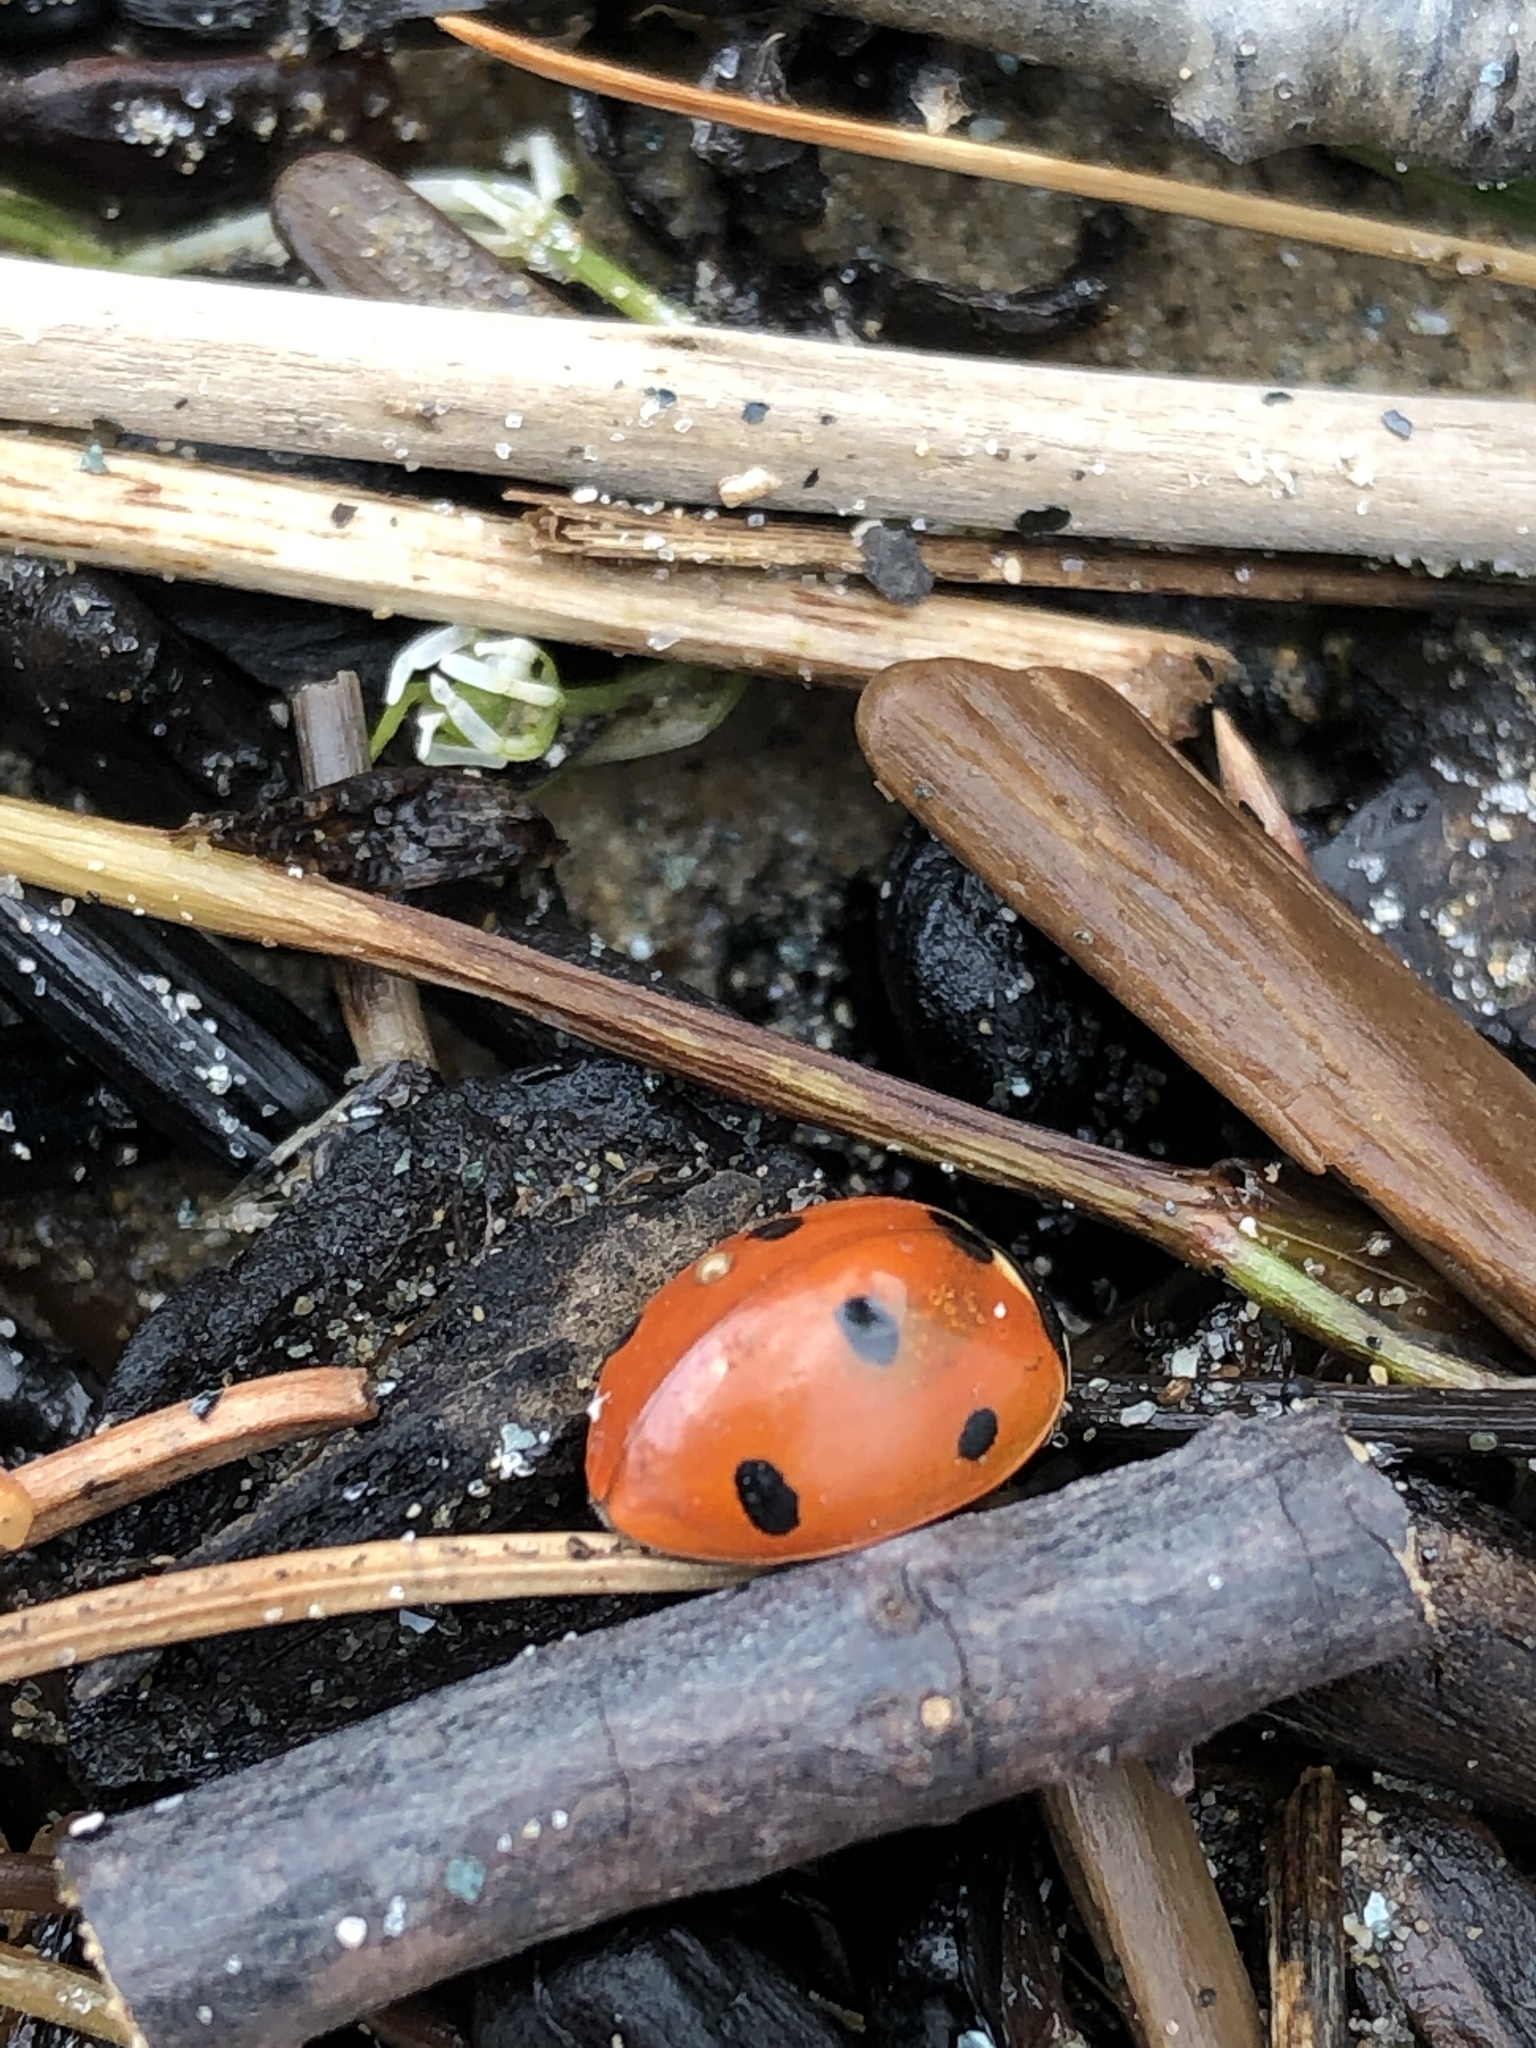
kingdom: Animalia
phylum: Arthropoda
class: Insecta
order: Coleoptera
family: Coccinellidae
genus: Coccinella
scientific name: Coccinella septempunctata
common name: Sevenspotted lady beetle
